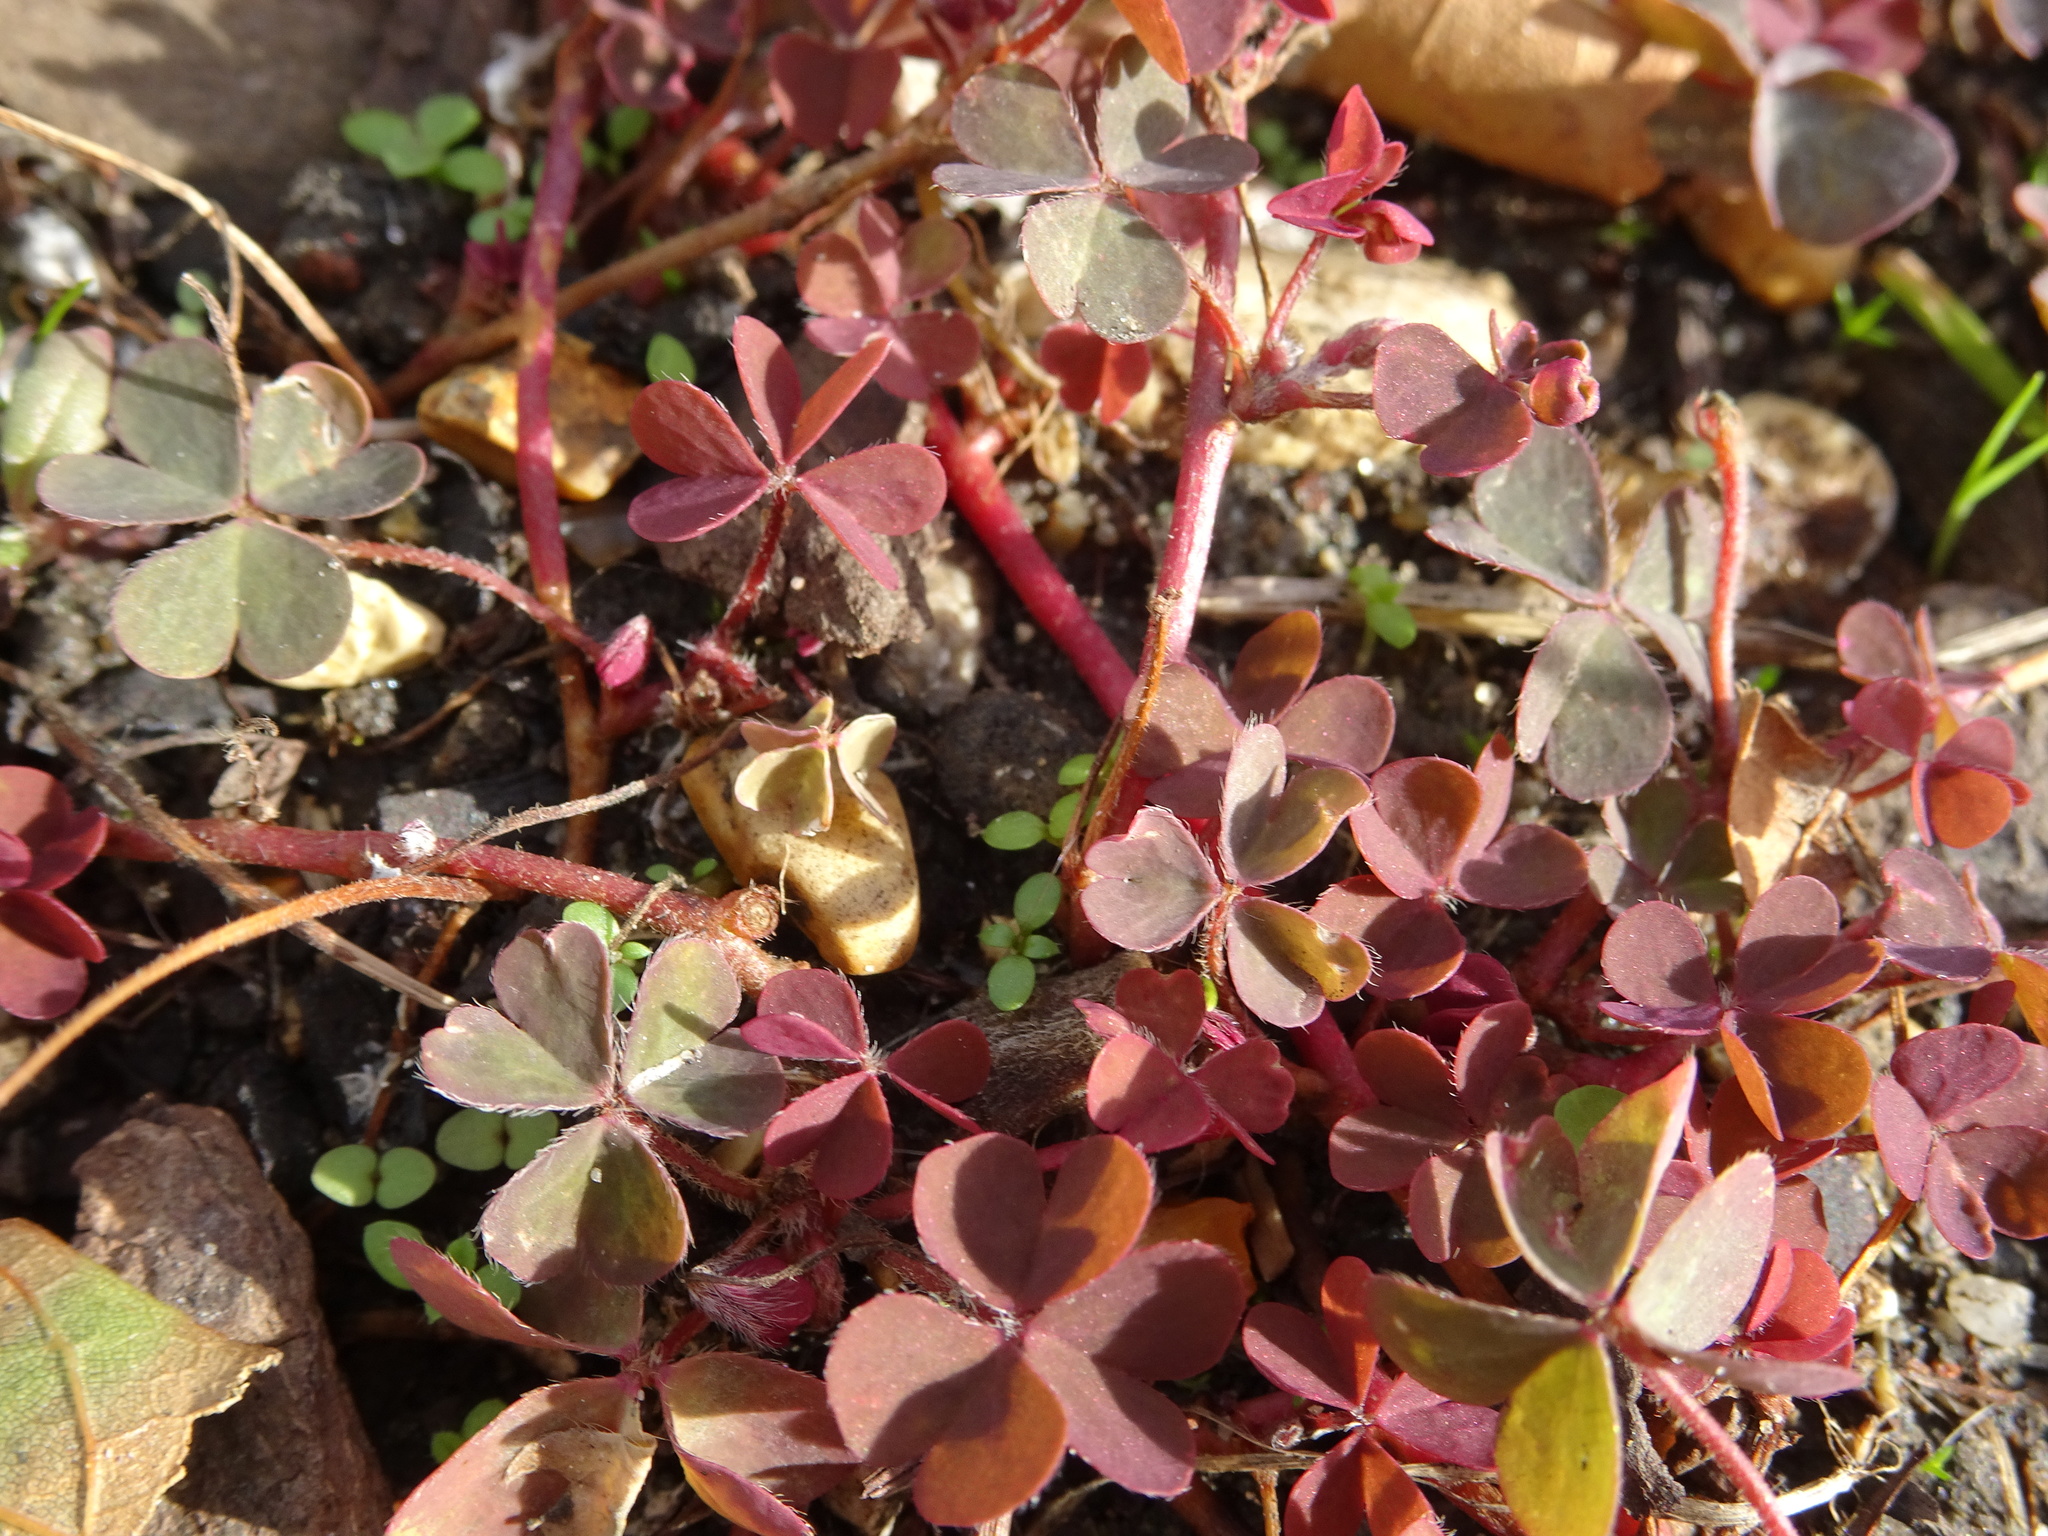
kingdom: Plantae
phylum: Tracheophyta
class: Magnoliopsida
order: Oxalidales
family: Oxalidaceae
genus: Oxalis
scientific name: Oxalis corniculata
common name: Procumbent yellow-sorrel
